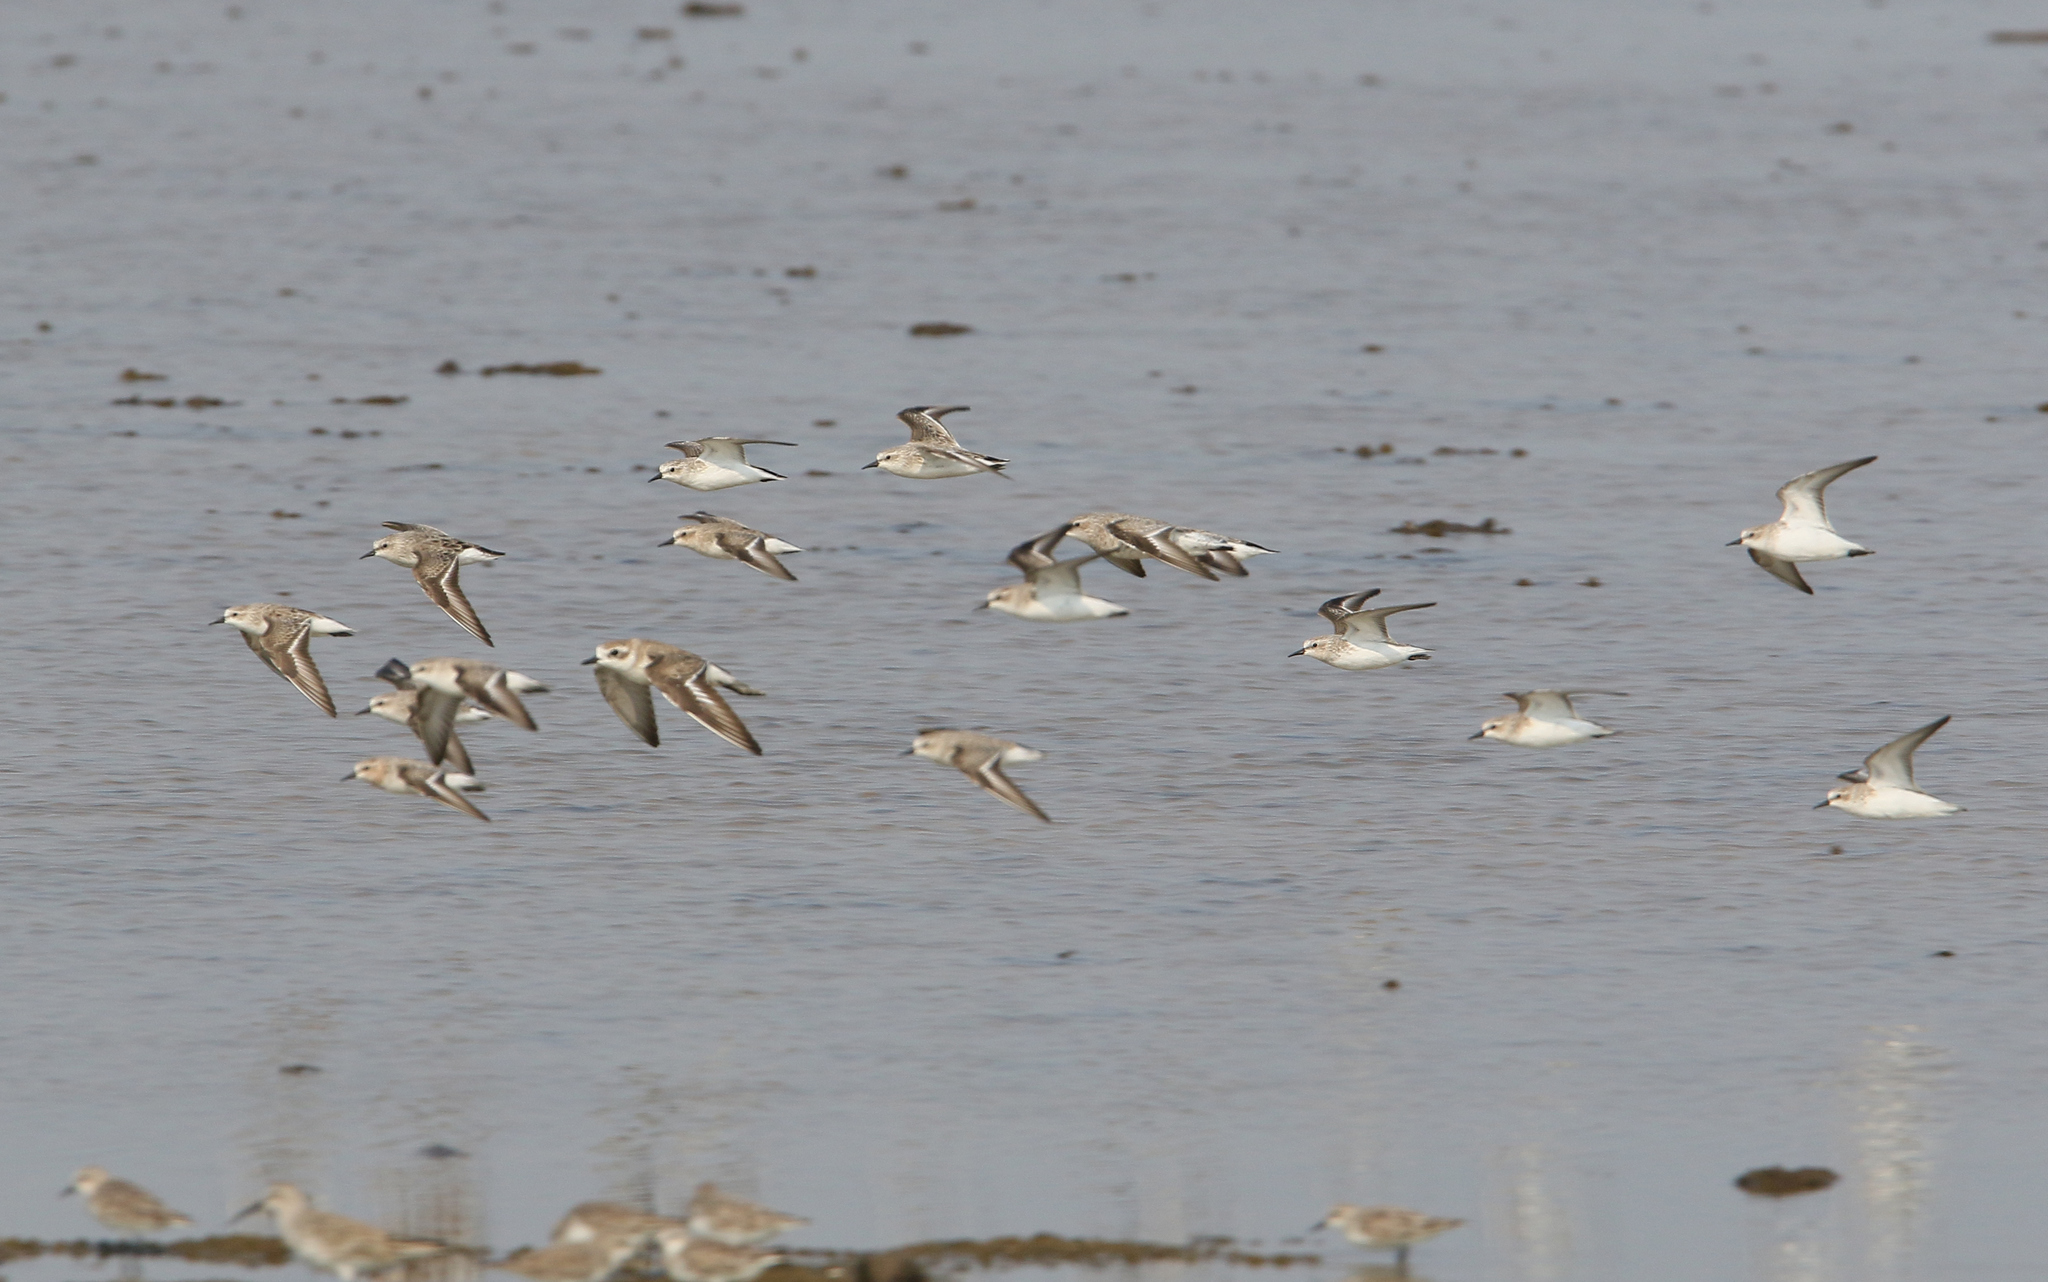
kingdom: Animalia
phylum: Chordata
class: Aves
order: Charadriiformes
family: Scolopacidae
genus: Calidris
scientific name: Calidris ruficollis
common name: Red-necked stint
